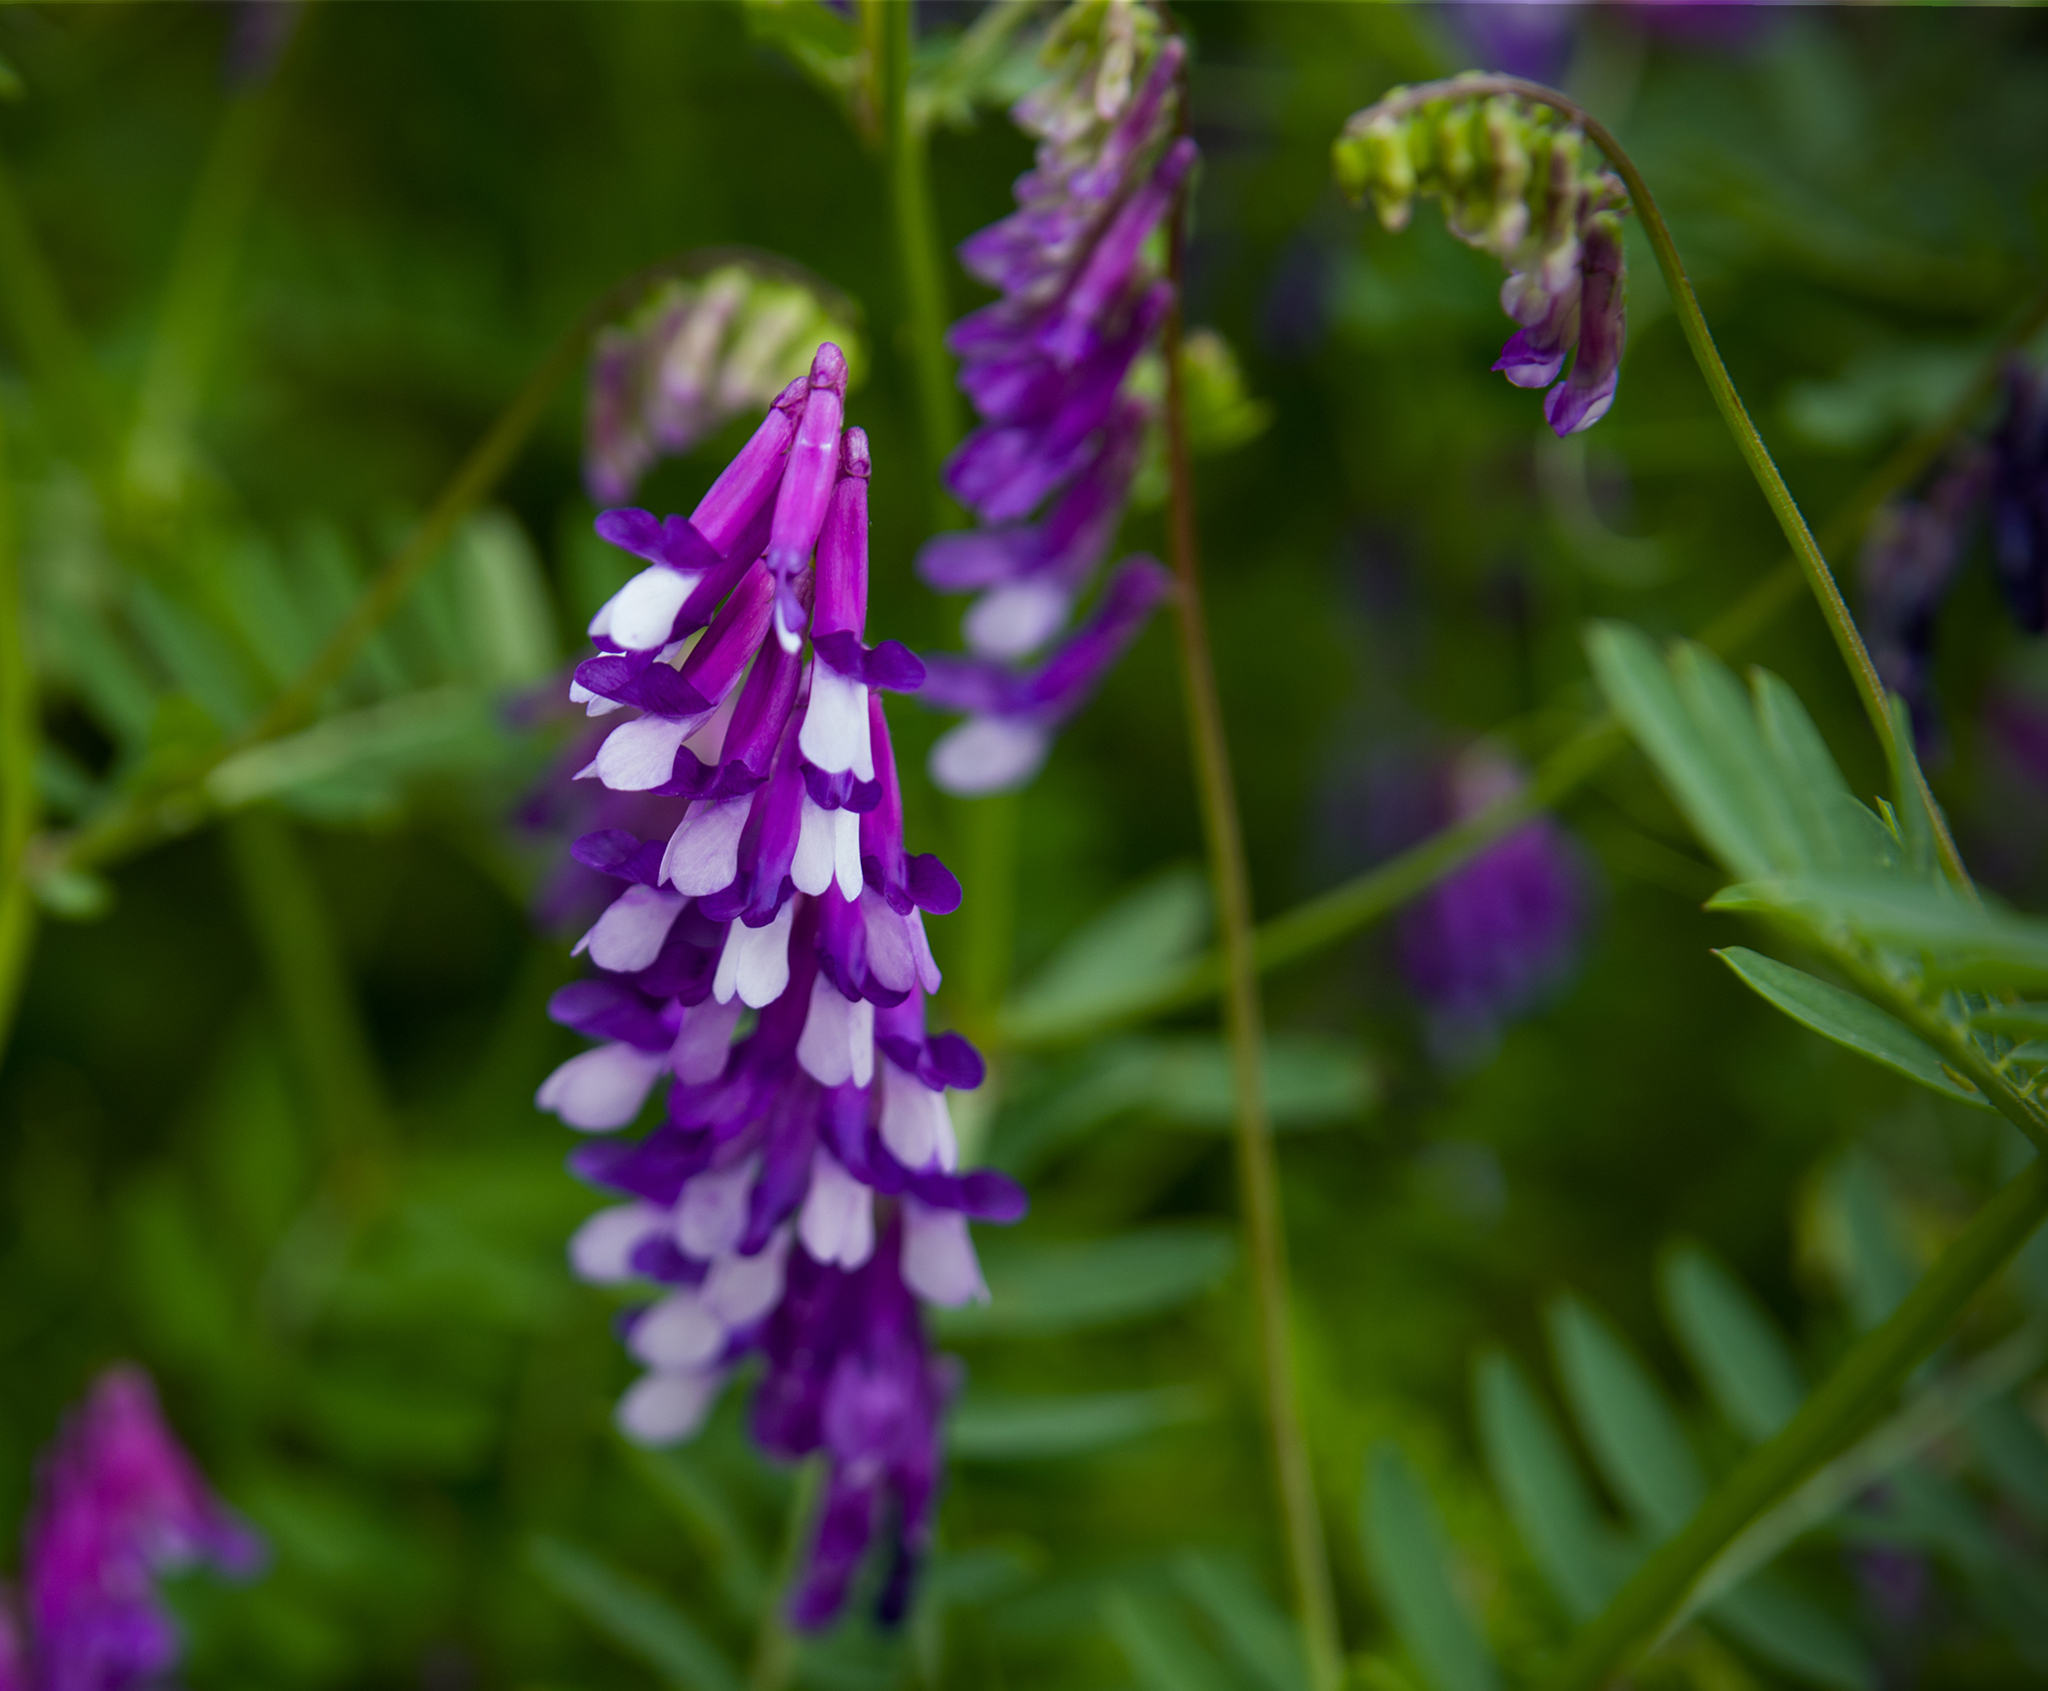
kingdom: Plantae
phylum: Tracheophyta
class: Magnoliopsida
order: Fabales
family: Fabaceae
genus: Vicia
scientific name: Vicia villosa
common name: Fodder vetch
